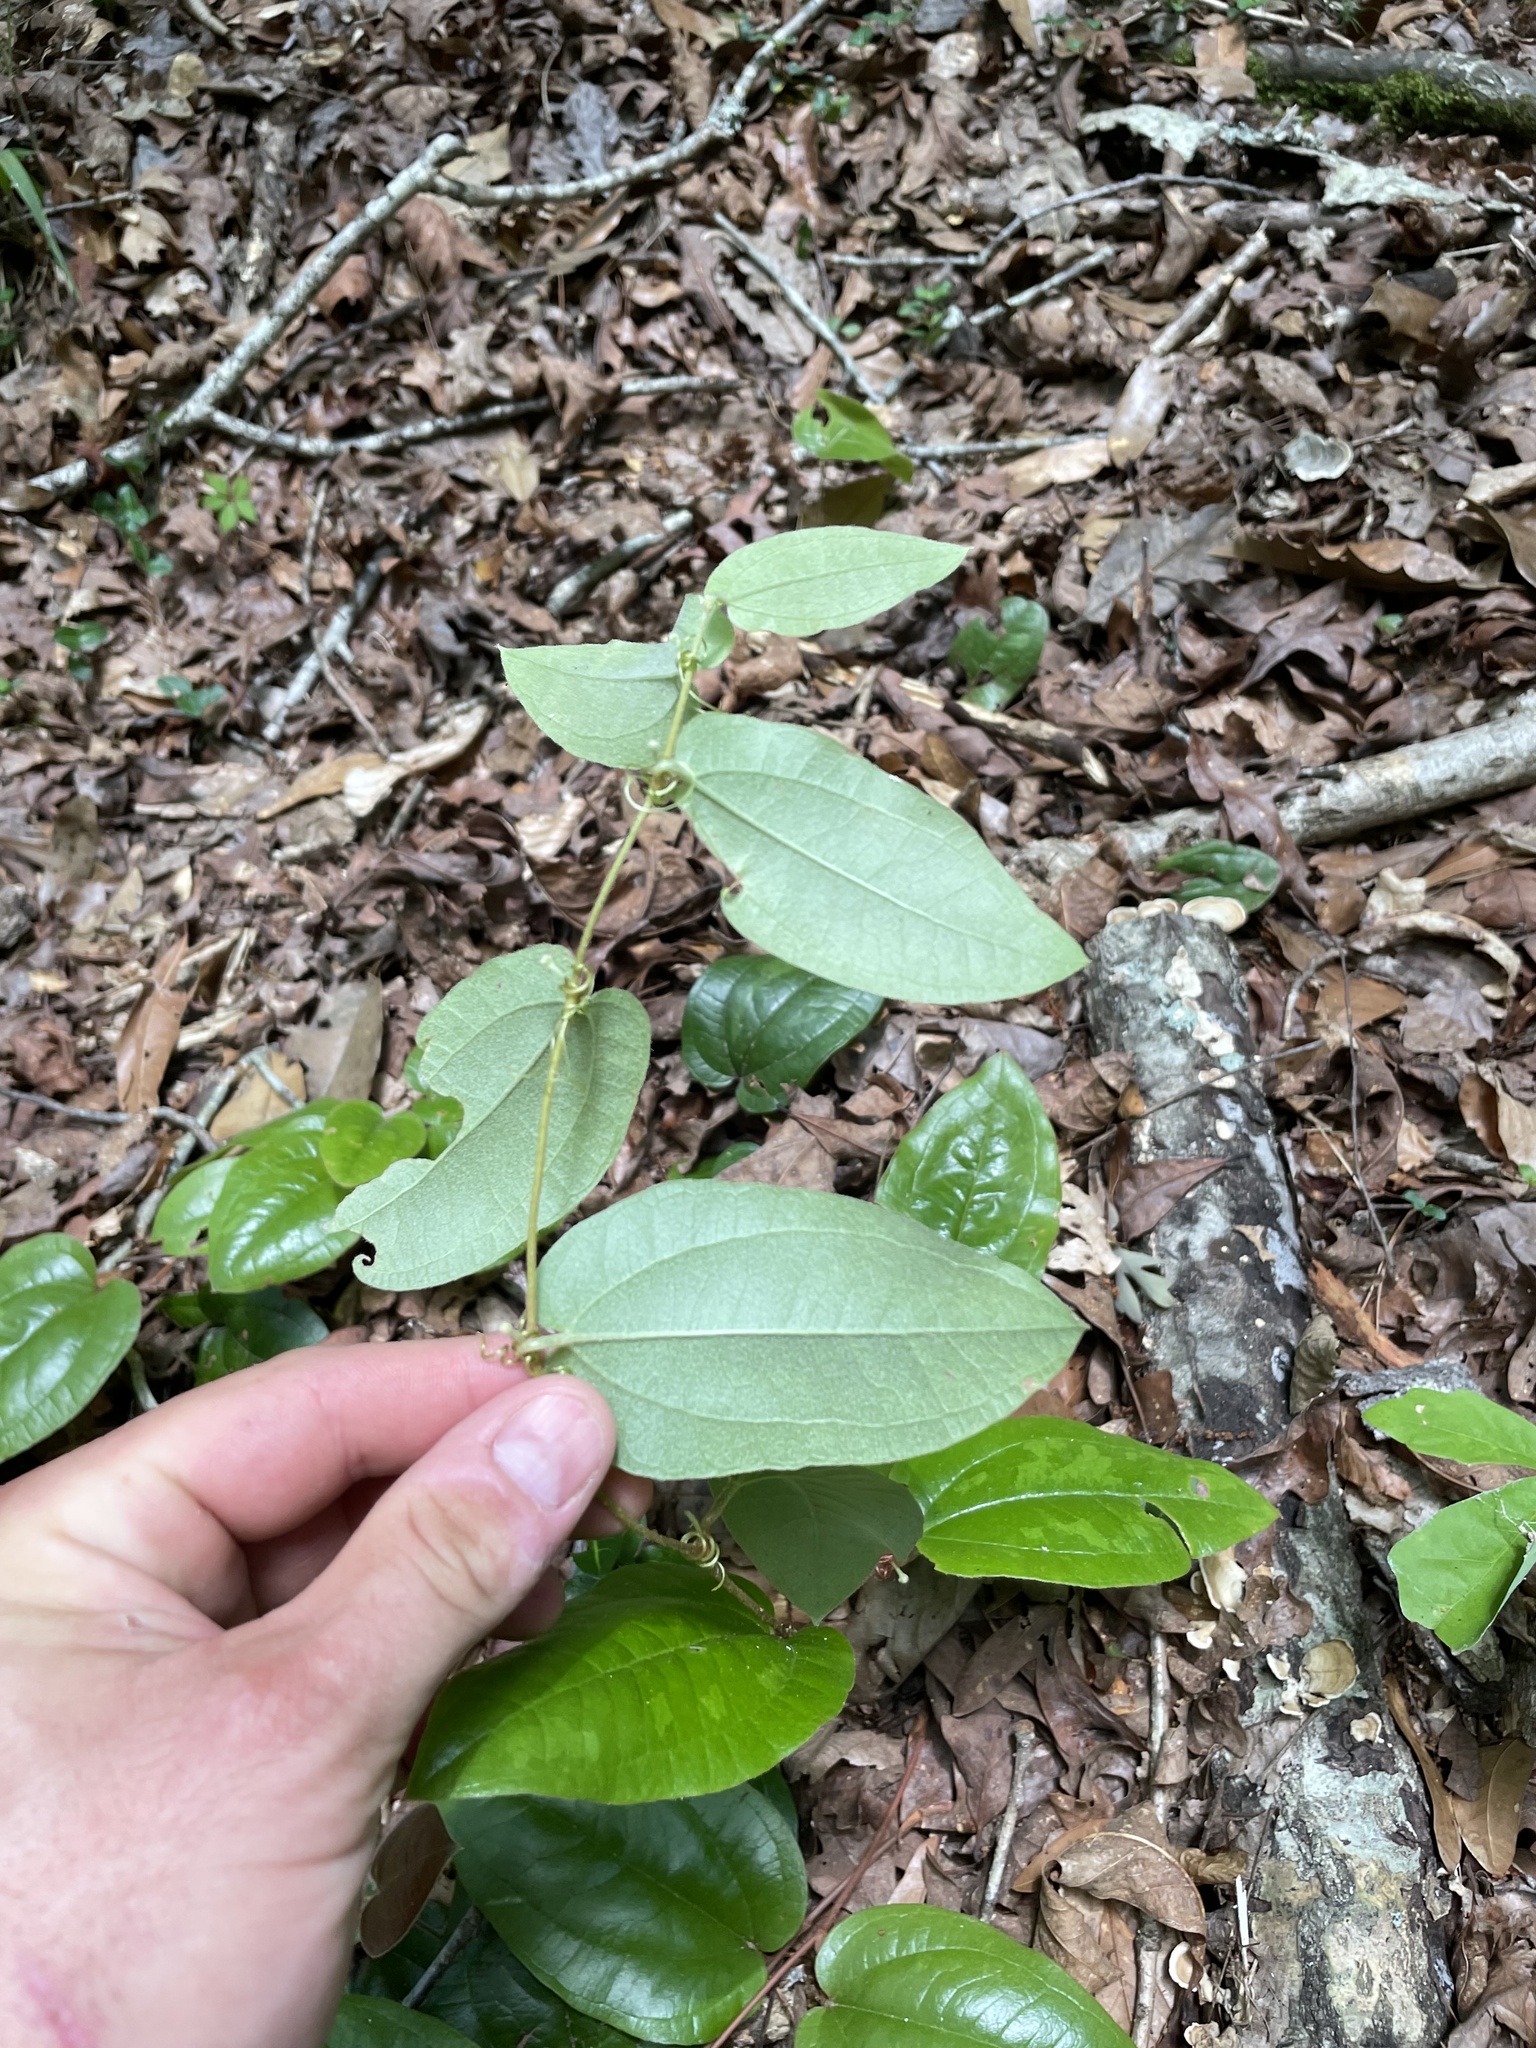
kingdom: Plantae
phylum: Tracheophyta
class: Liliopsida
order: Liliales
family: Smilacaceae
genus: Smilax
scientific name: Smilax pumila
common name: Sarsaparilla-vine
